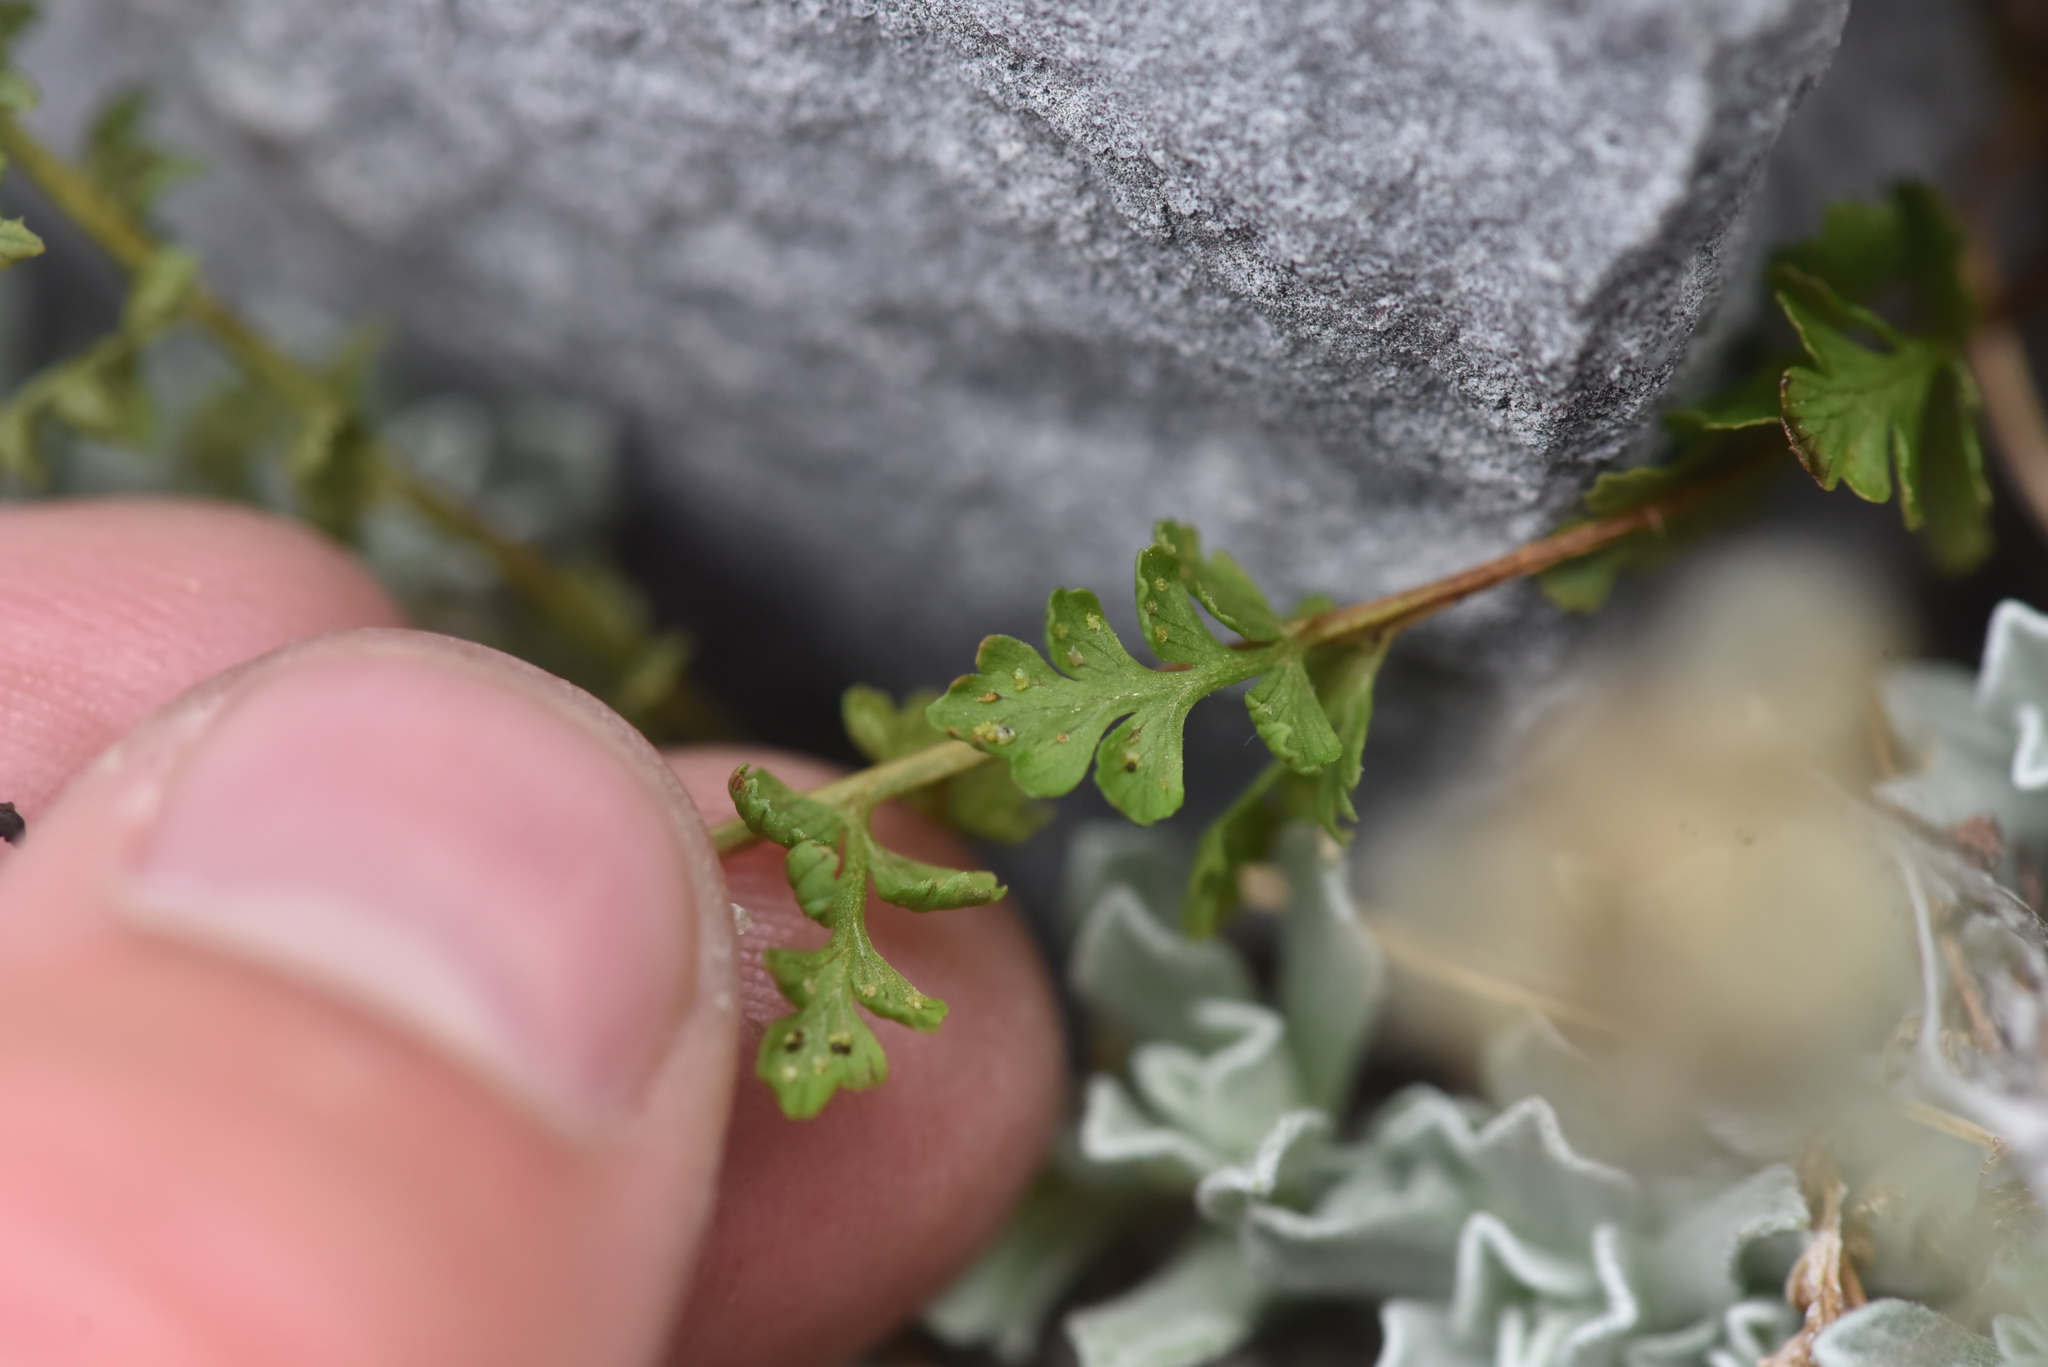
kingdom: Plantae
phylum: Tracheophyta
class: Polypodiopsida
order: Polypodiales
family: Cystopteridaceae
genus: Cystopteris
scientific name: Cystopteris fragilis
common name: Brittle bladder fern
